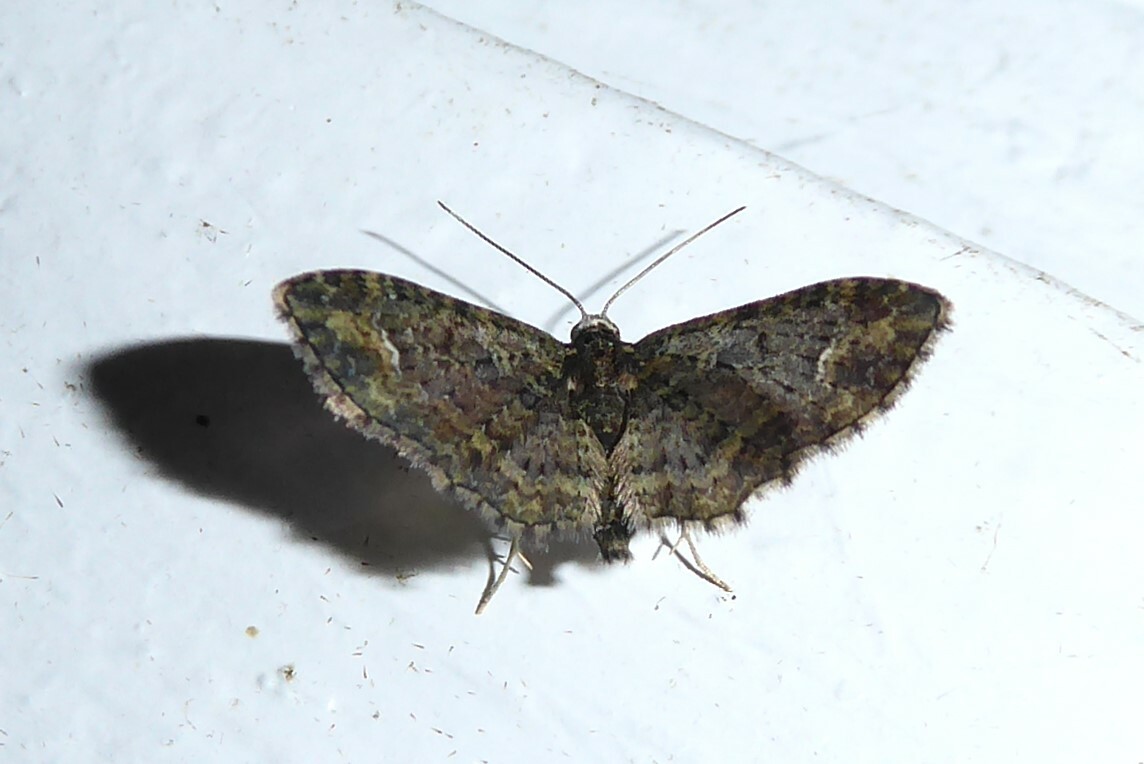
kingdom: Animalia
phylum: Arthropoda
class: Insecta
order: Lepidoptera
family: Geometridae
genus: Pasiphilodes
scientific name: Pasiphilodes testulata
